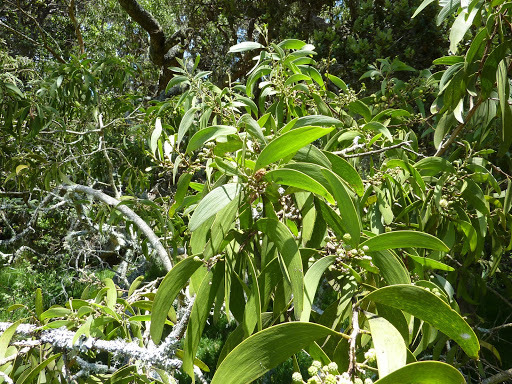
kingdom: Plantae
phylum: Tracheophyta
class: Magnoliopsida
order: Fabales
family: Fabaceae
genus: Acacia
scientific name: Acacia koa
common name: Gray koa
